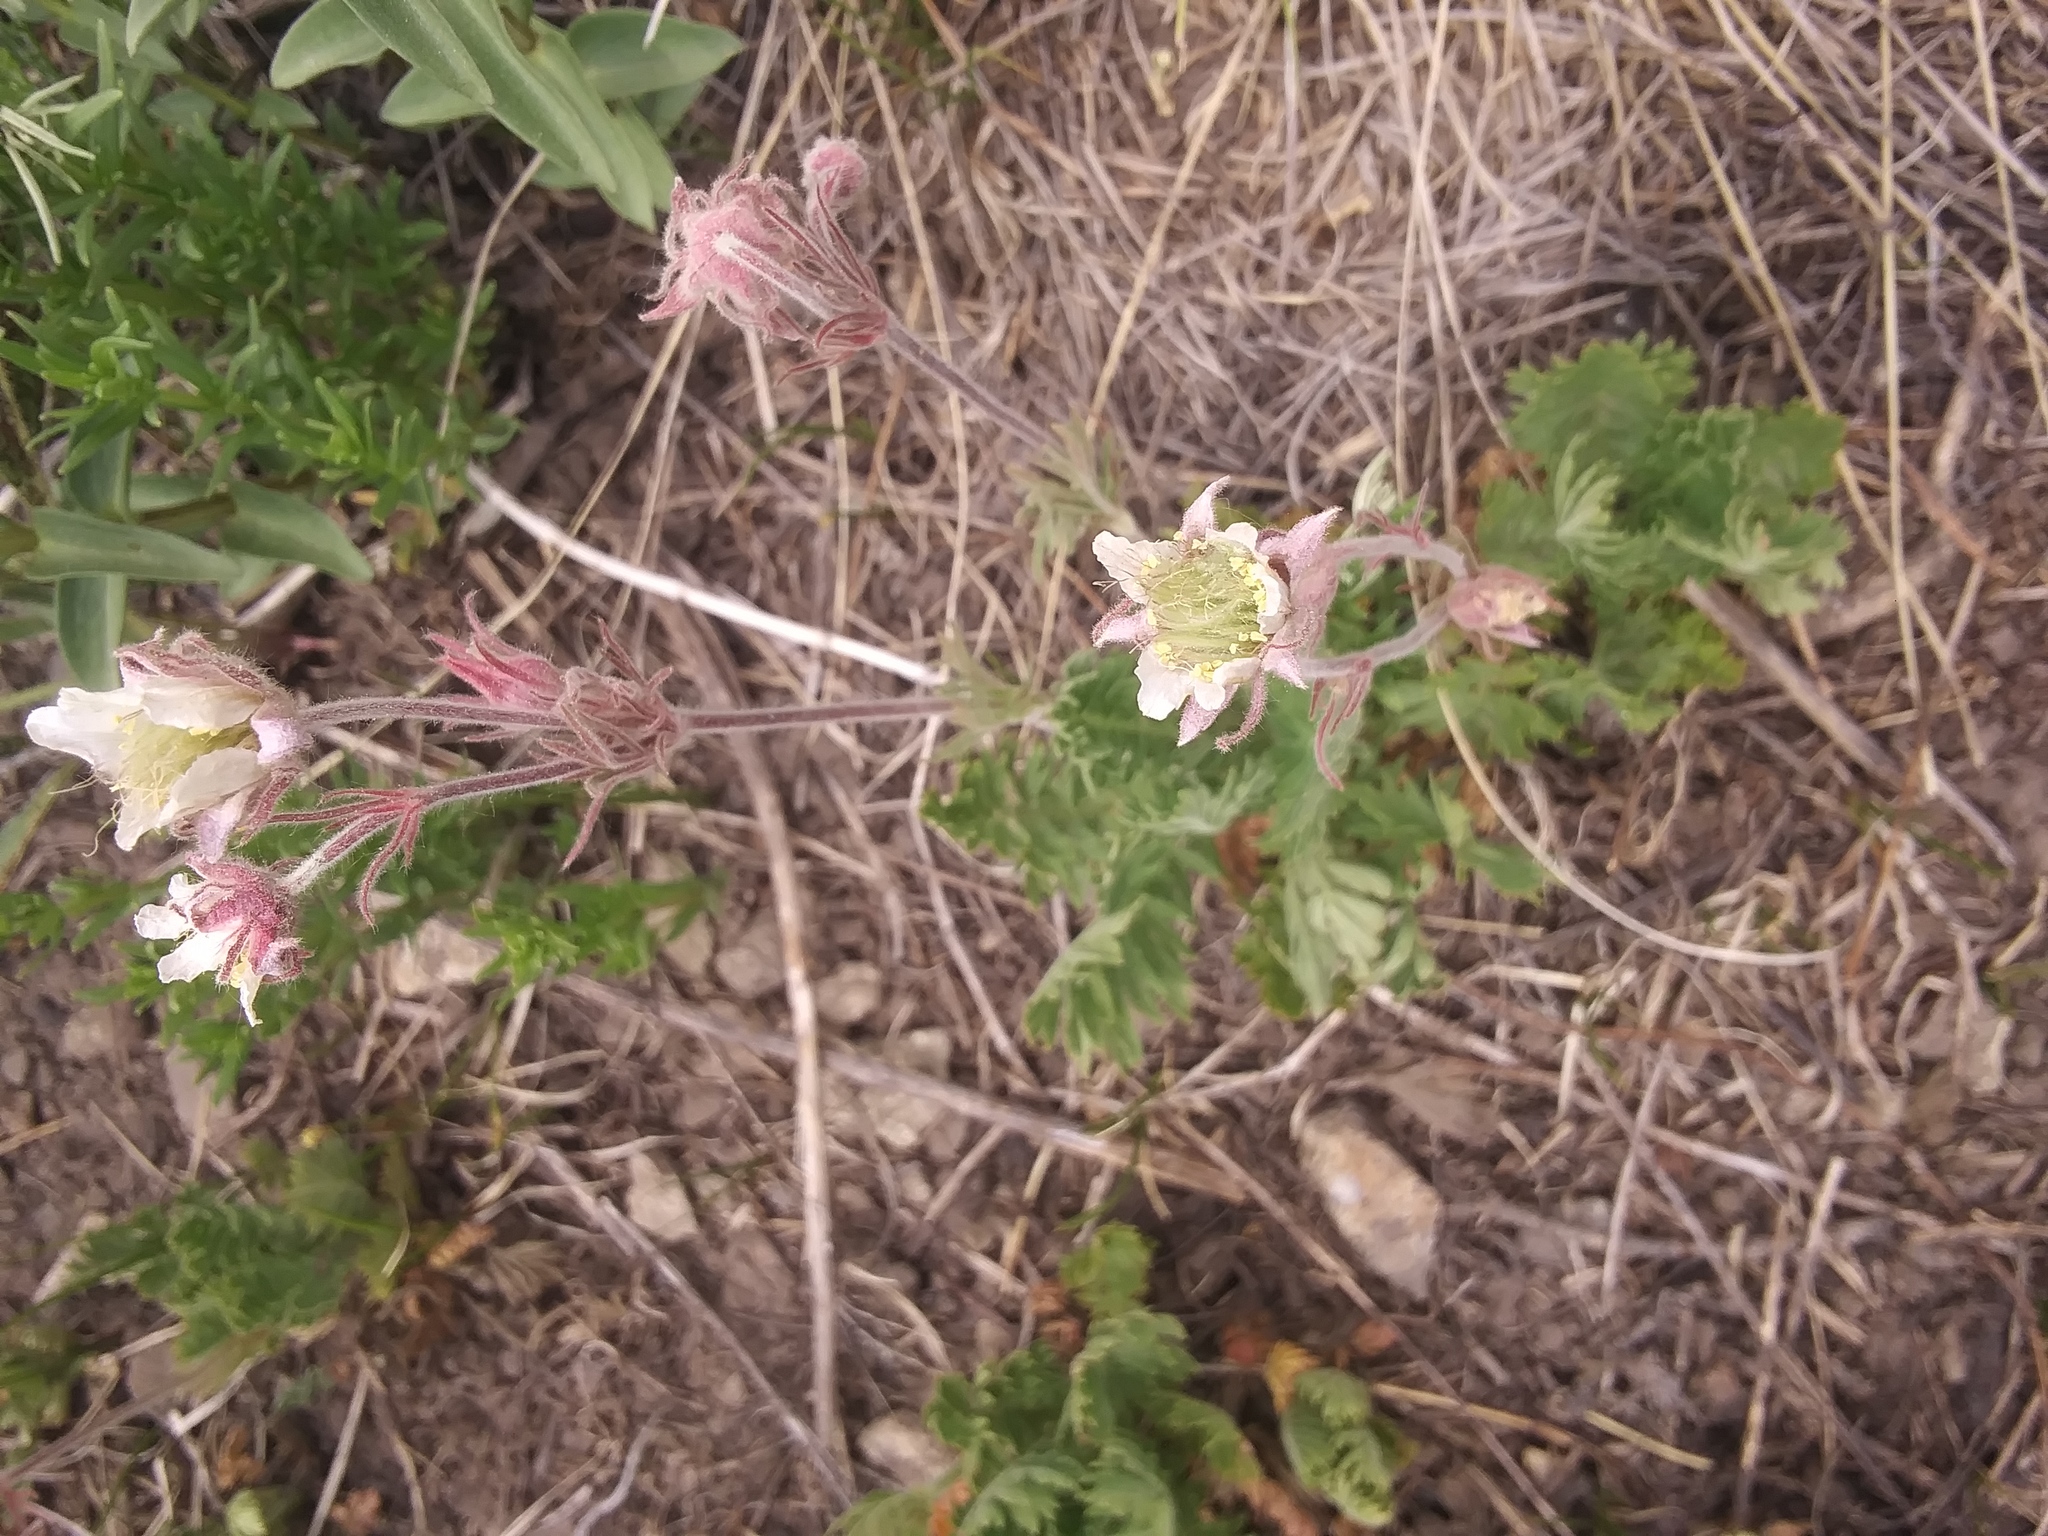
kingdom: Plantae
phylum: Tracheophyta
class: Magnoliopsida
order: Rosales
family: Rosaceae
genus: Geum
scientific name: Geum triflorum
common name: Old man's whiskers
